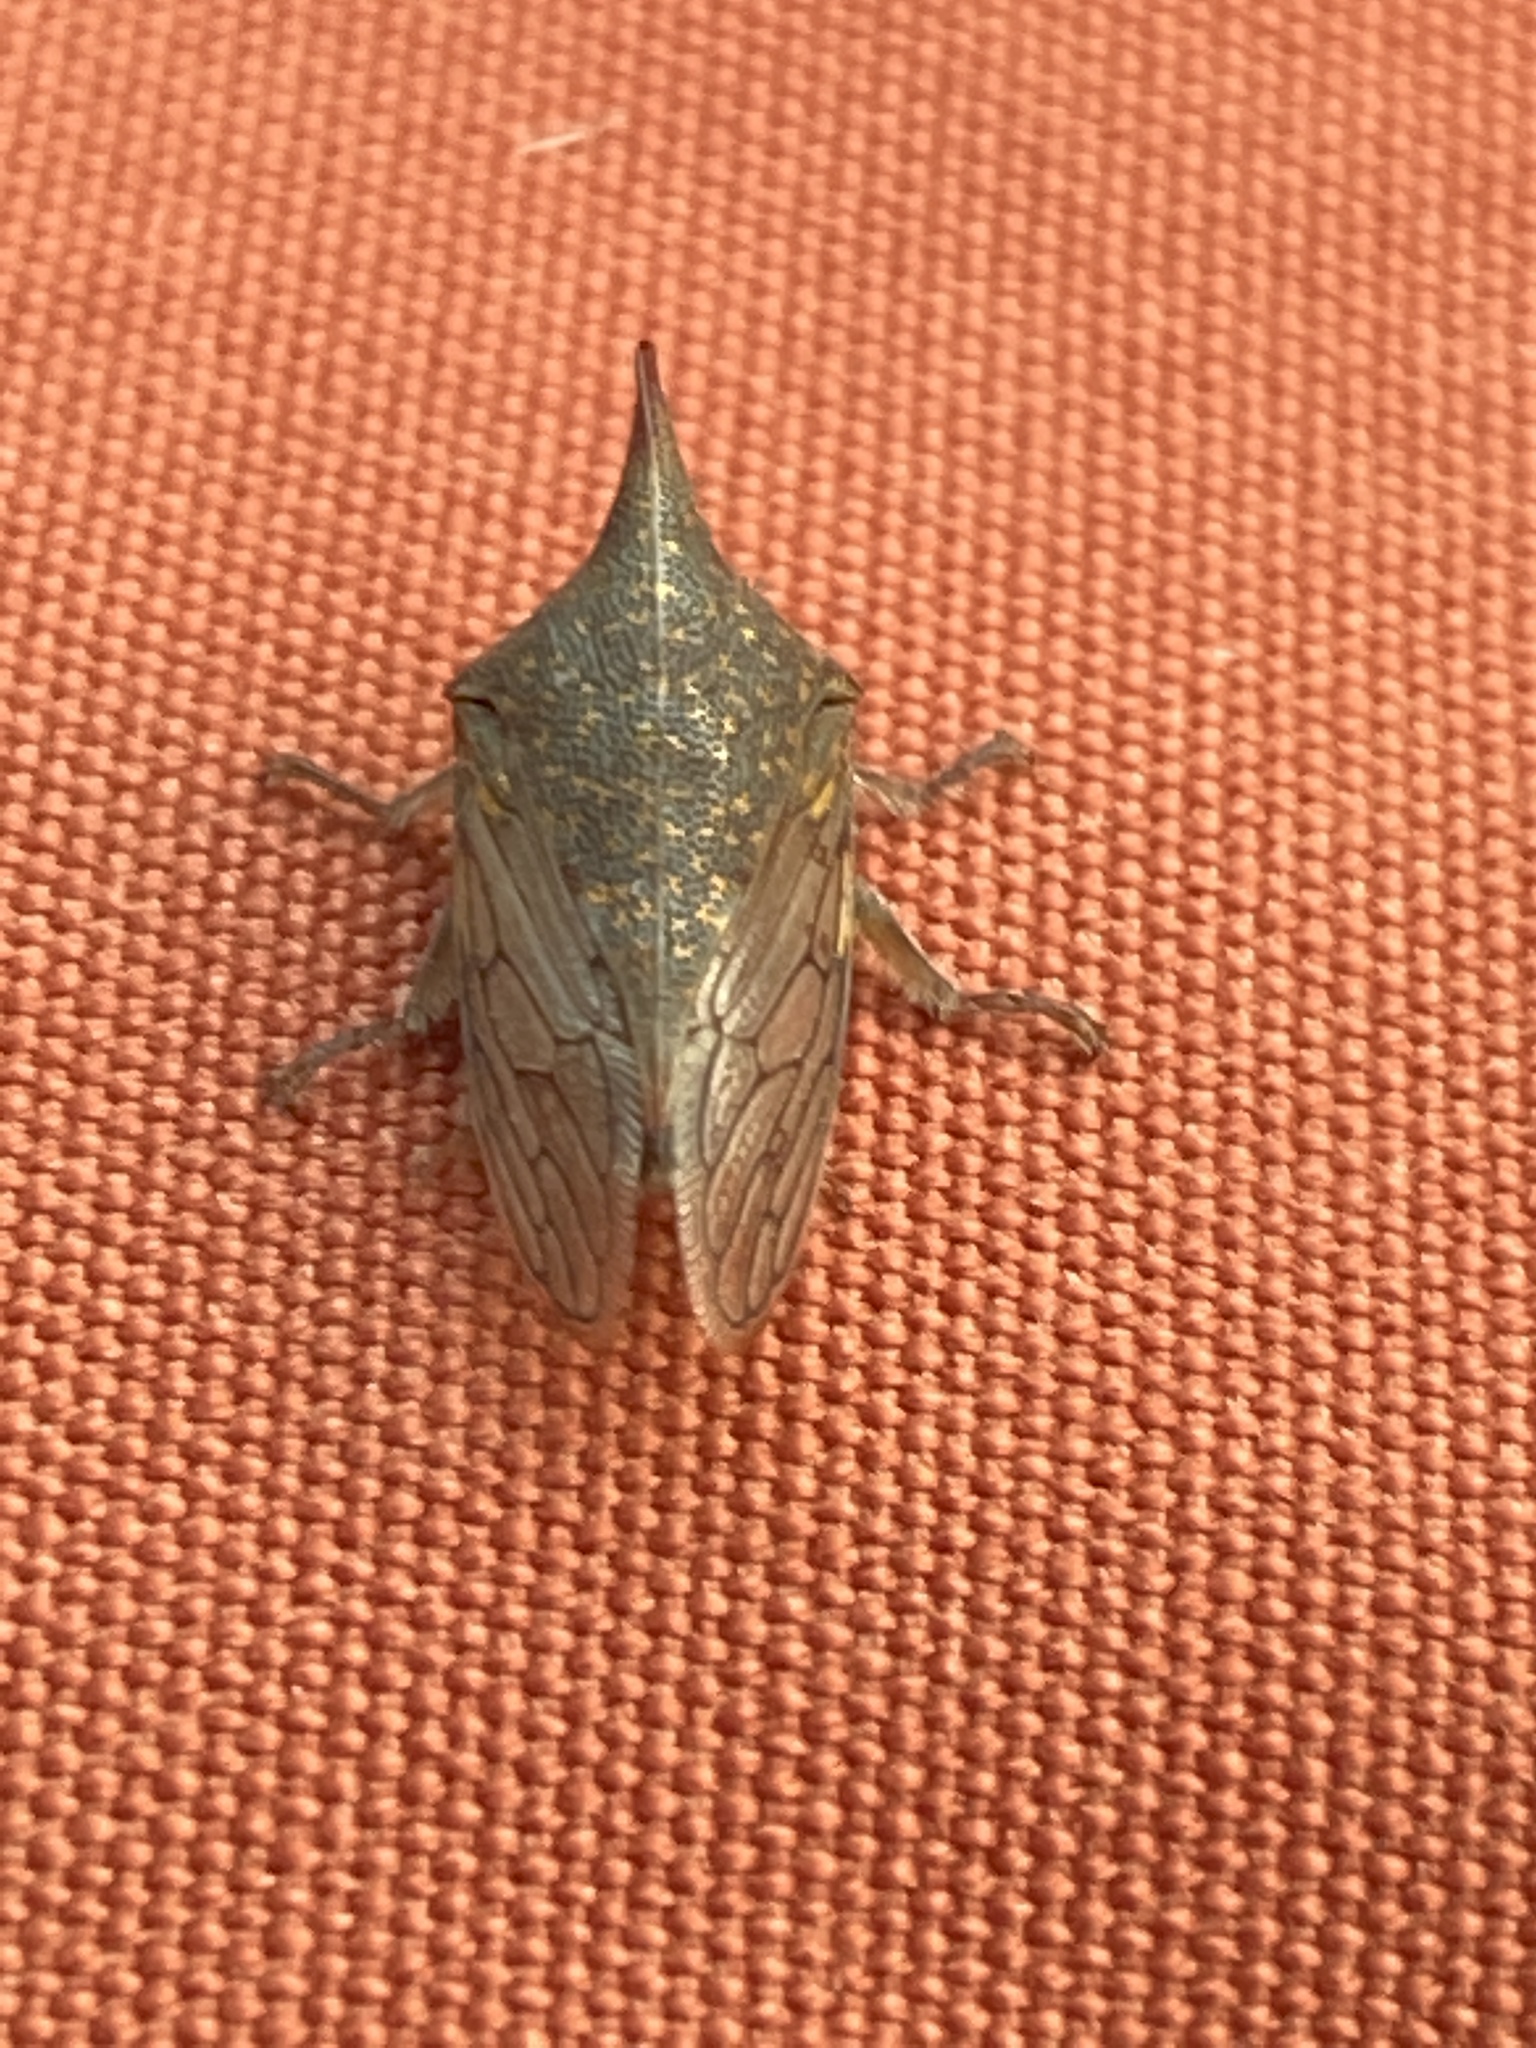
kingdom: Animalia
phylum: Arthropoda
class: Insecta
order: Hemiptera
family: Membracidae
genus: Platycotis
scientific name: Platycotis vittatus
